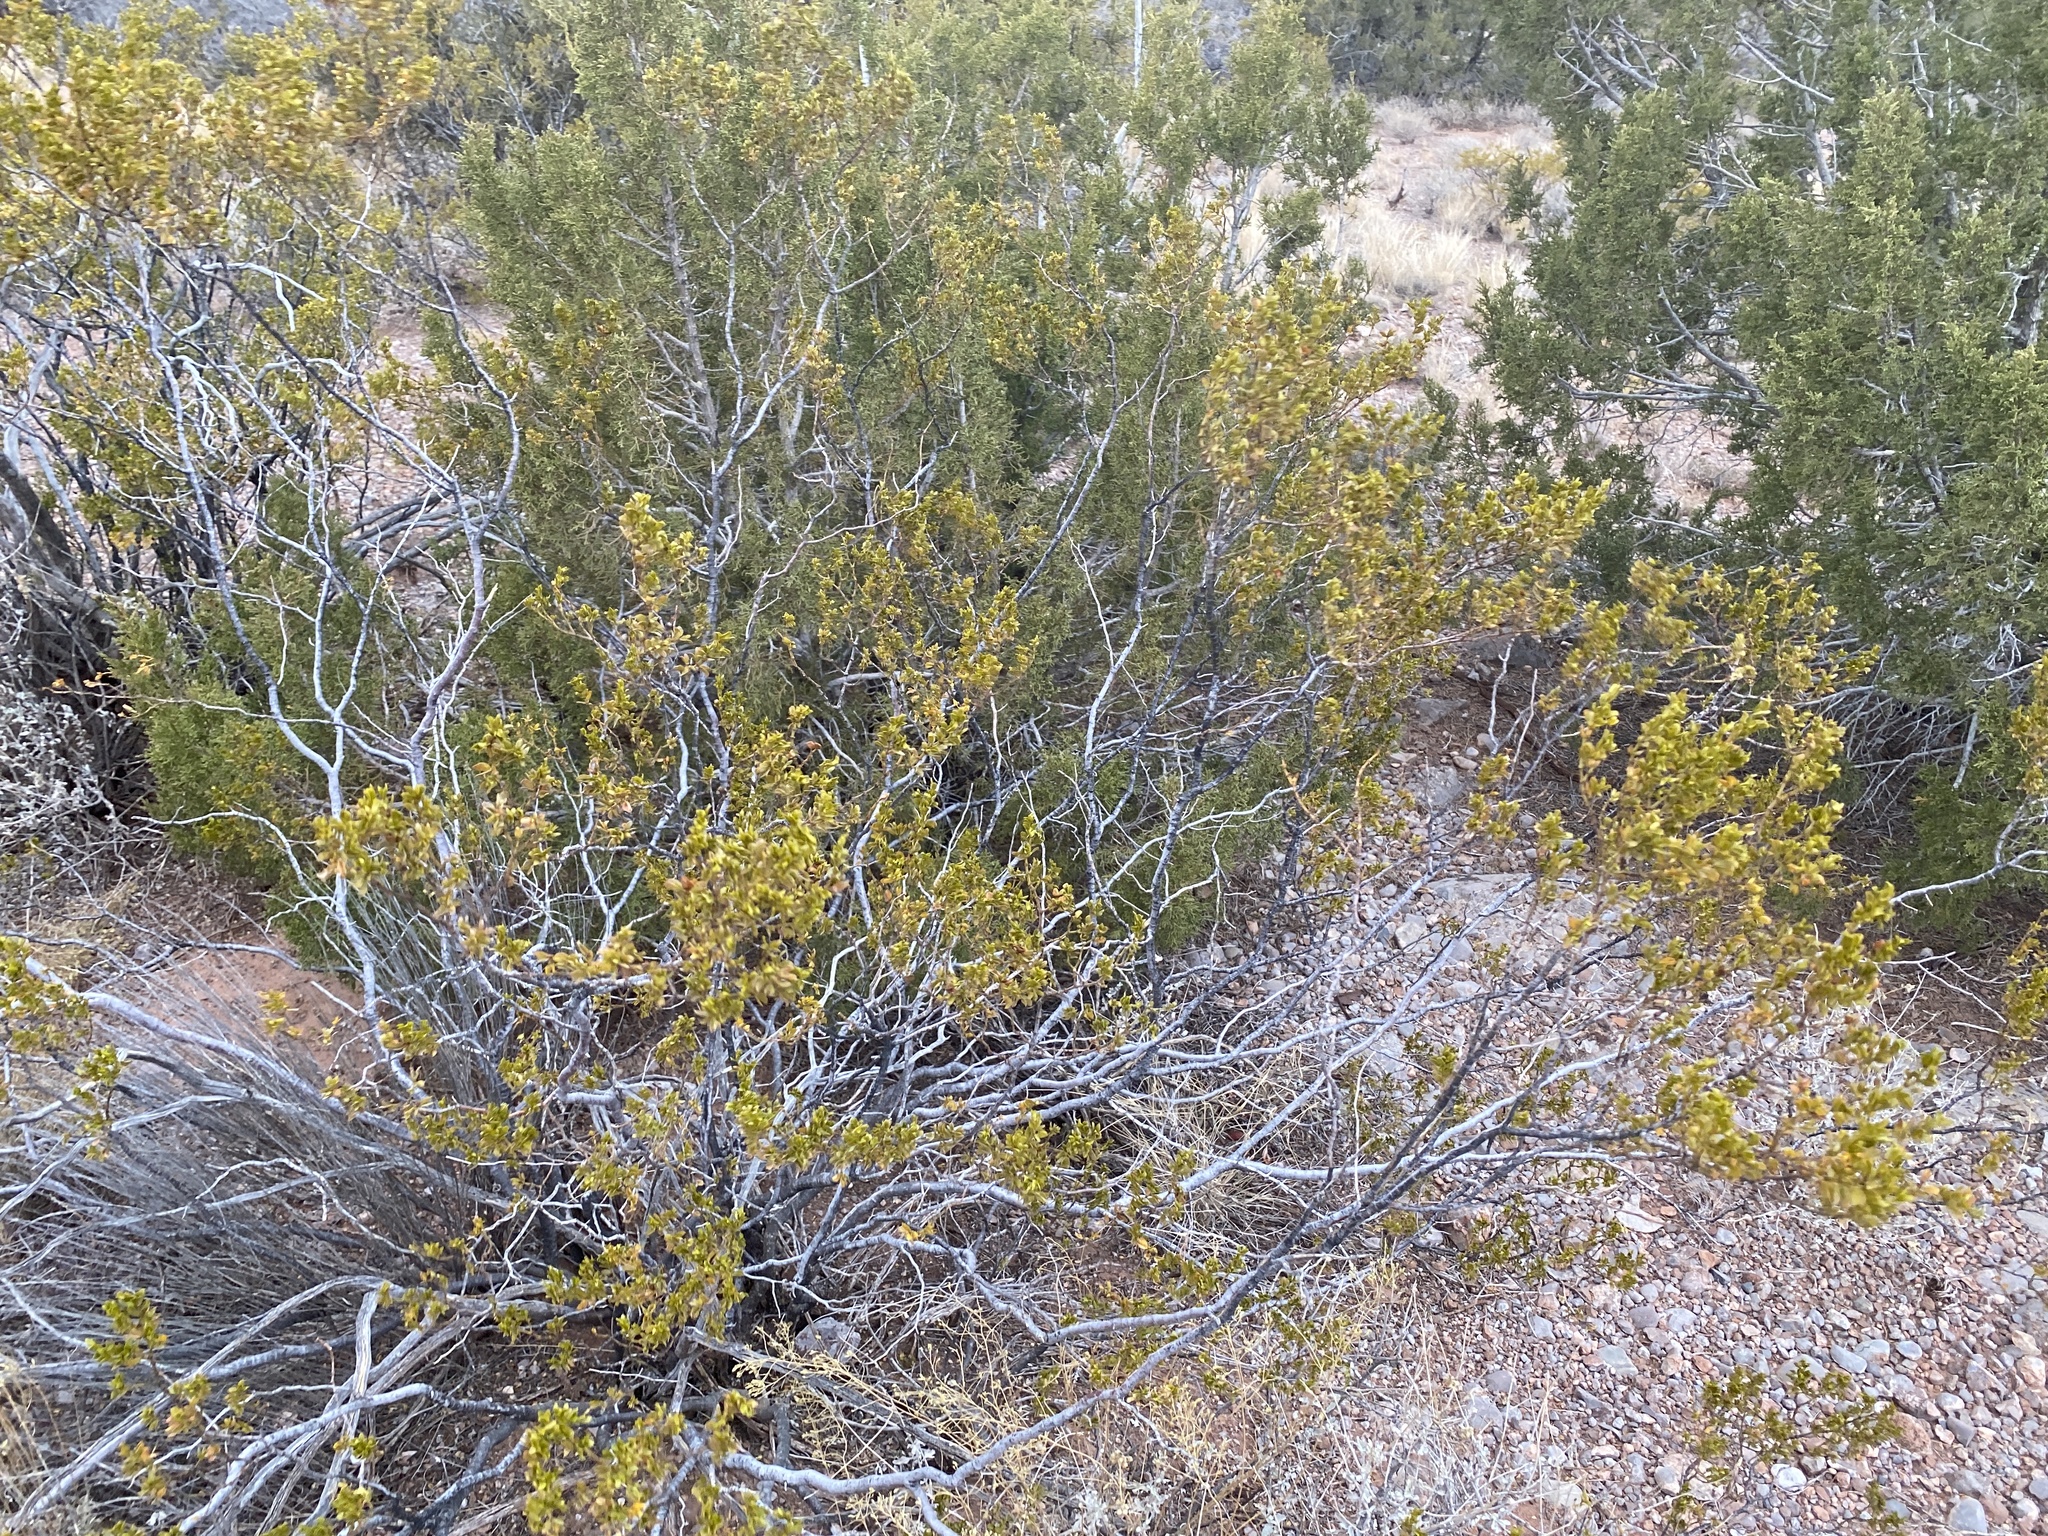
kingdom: Plantae
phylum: Tracheophyta
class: Magnoliopsida
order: Zygophyllales
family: Zygophyllaceae
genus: Larrea
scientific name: Larrea tridentata
